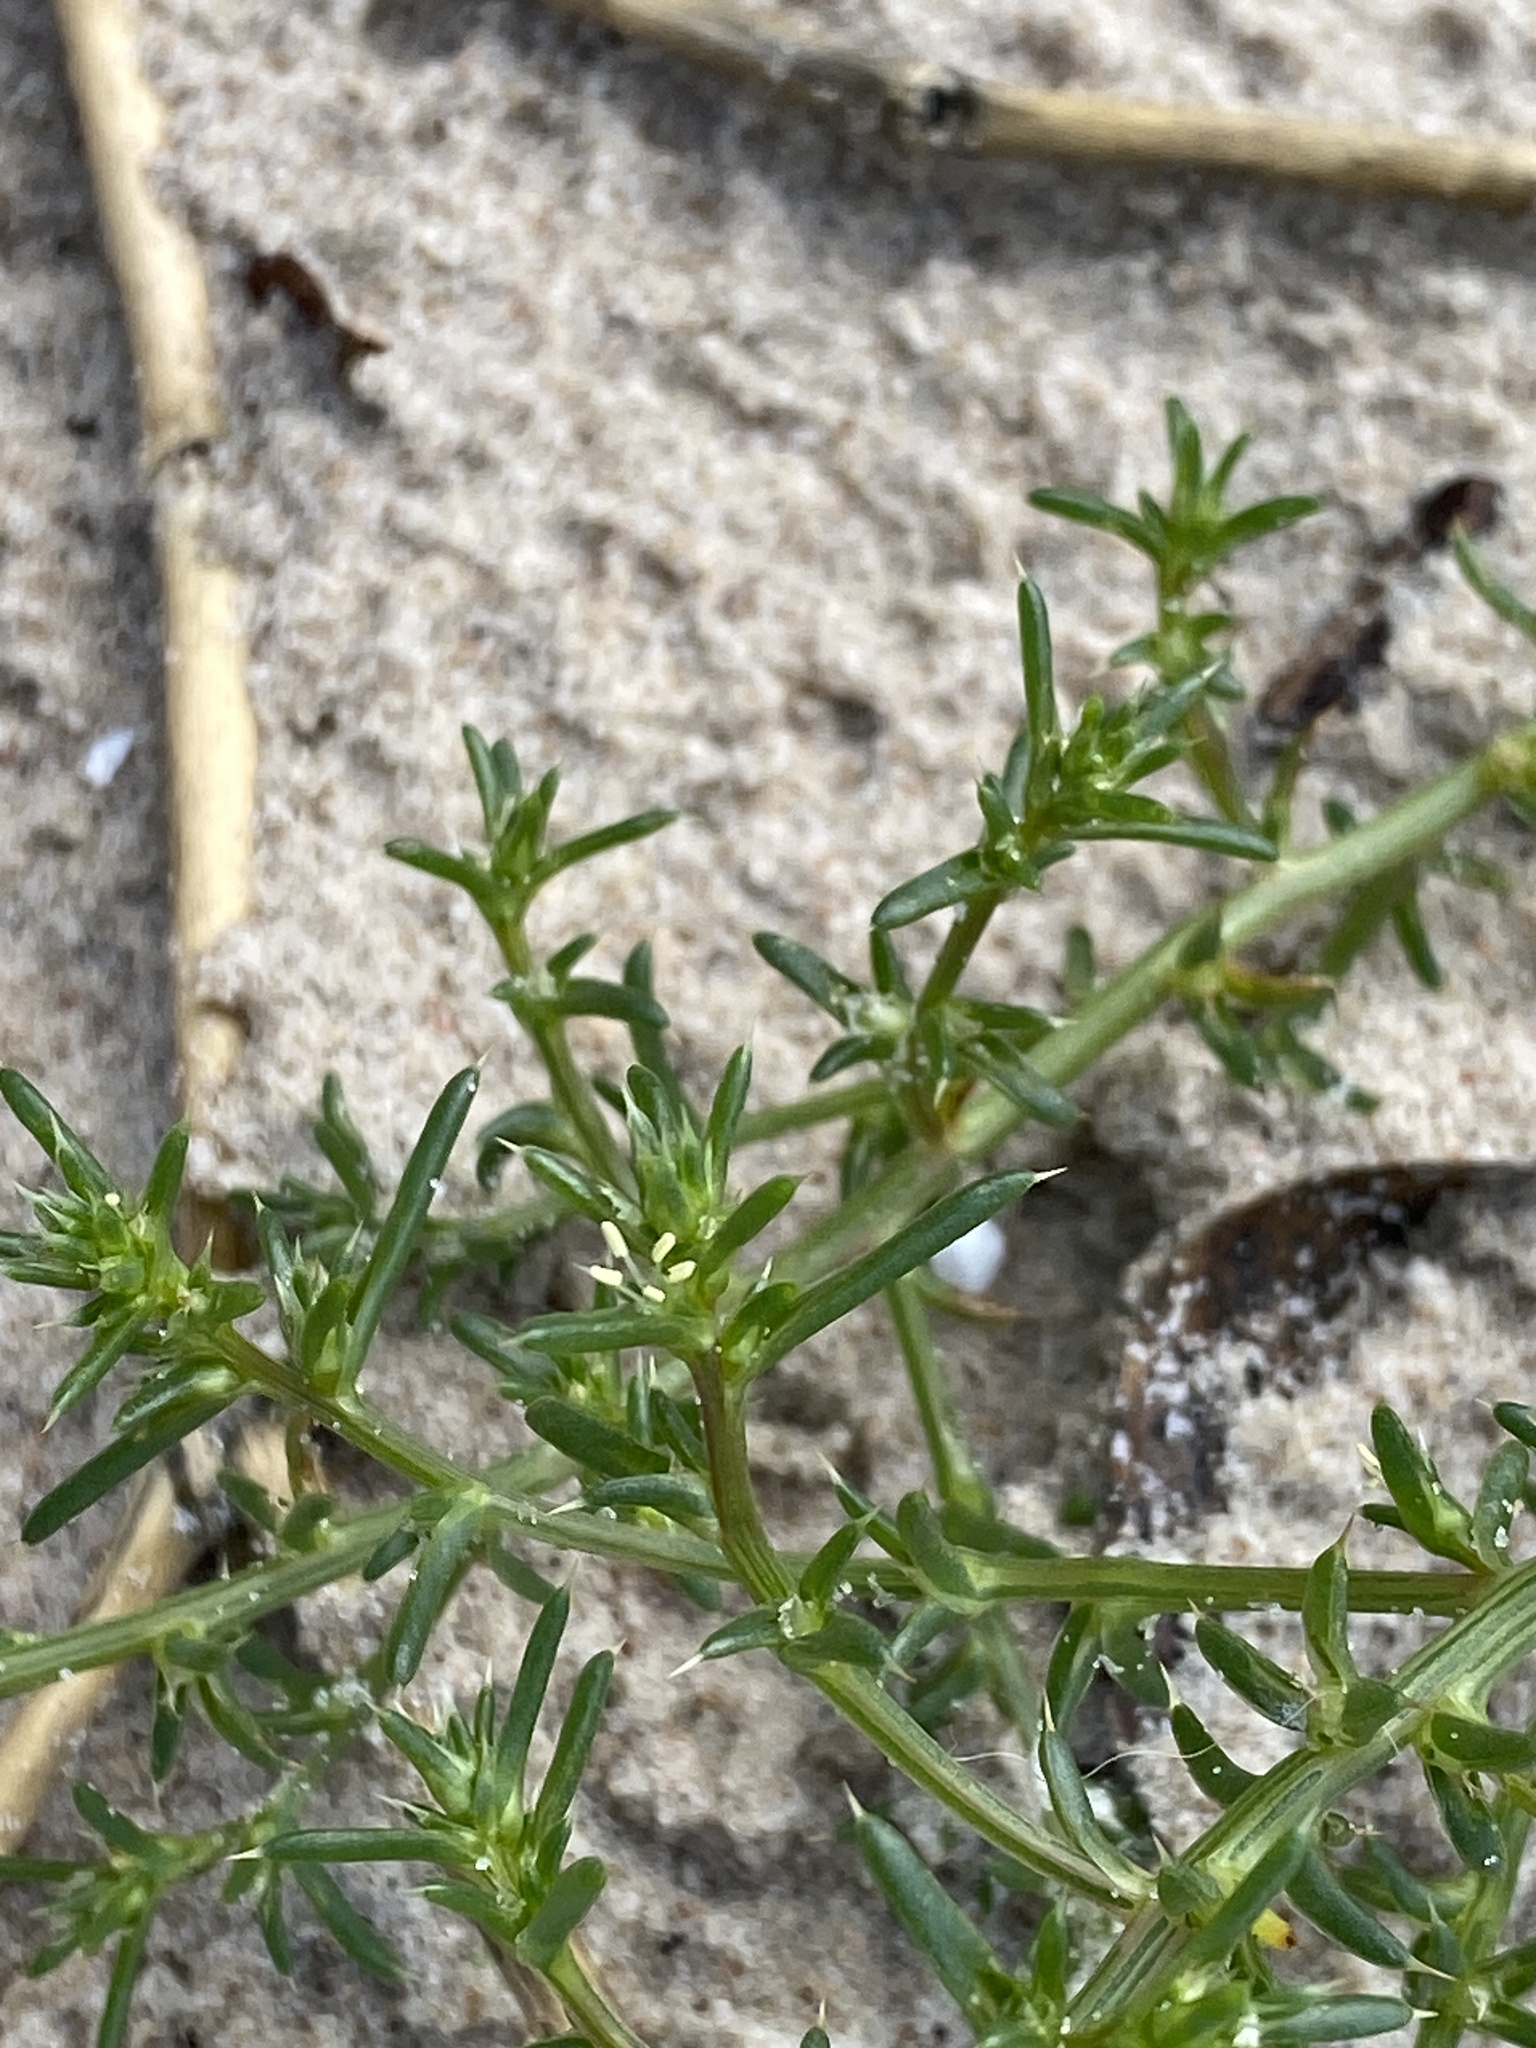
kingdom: Plantae
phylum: Tracheophyta
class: Magnoliopsida
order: Caryophyllales
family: Amaranthaceae
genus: Salsola
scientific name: Salsola kali
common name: Saltwort
